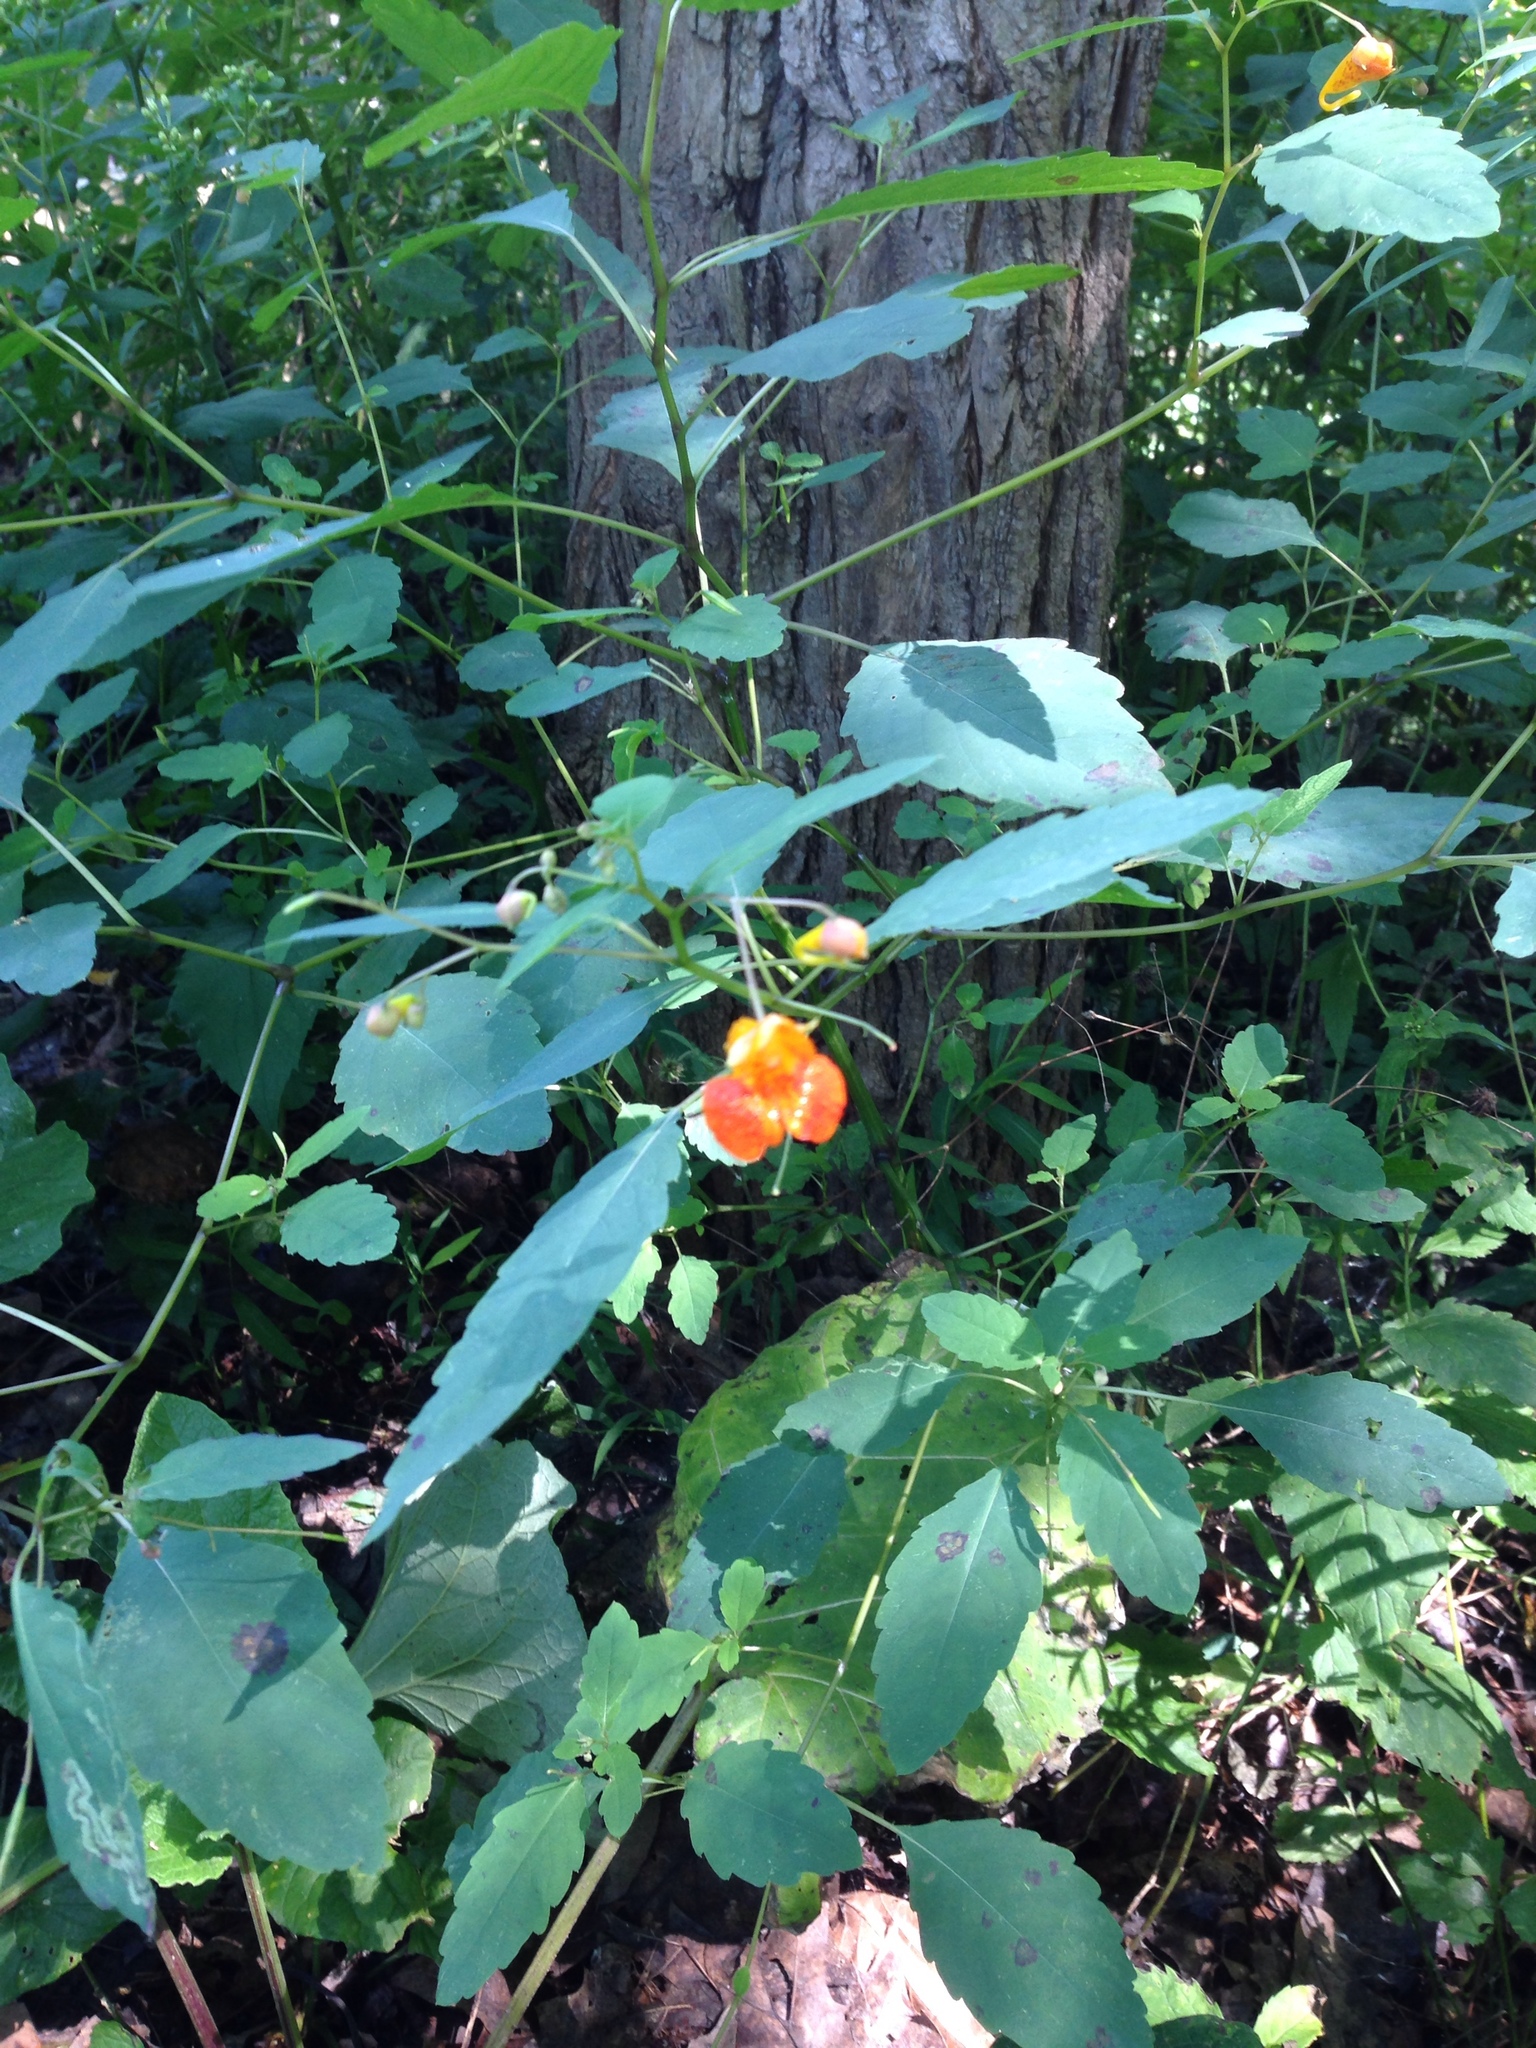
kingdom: Plantae
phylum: Tracheophyta
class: Magnoliopsida
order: Ericales
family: Balsaminaceae
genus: Impatiens
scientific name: Impatiens capensis
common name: Orange balsam
